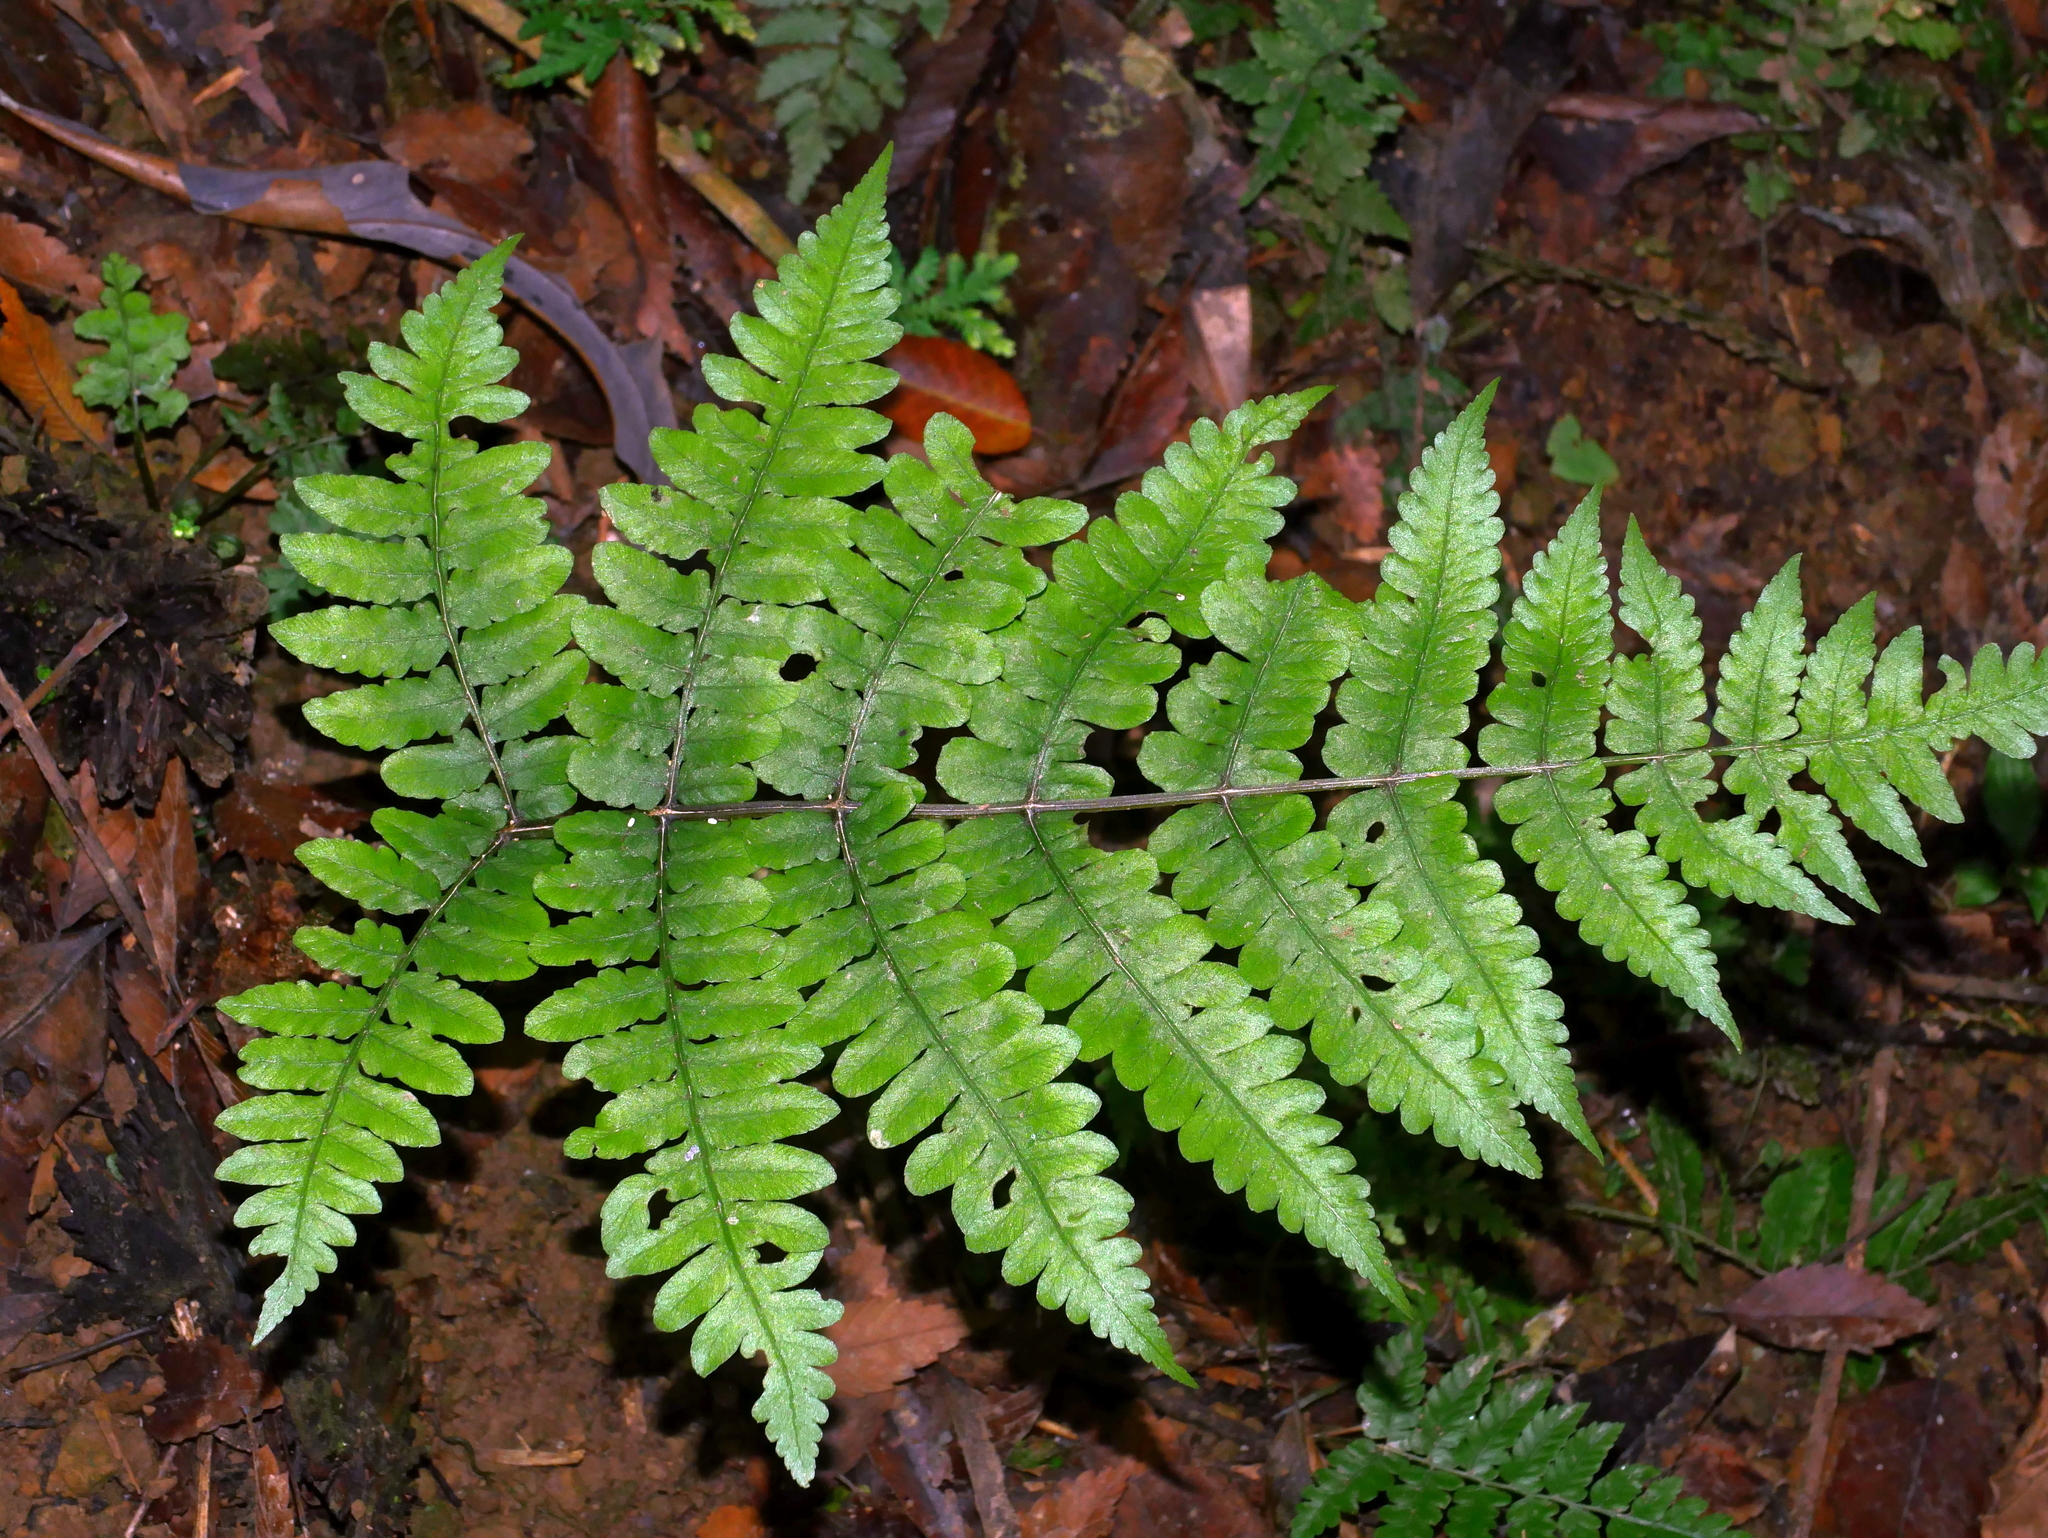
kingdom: Plantae
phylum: Tracheophyta
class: Polypodiopsida
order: Polypodiales
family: Athyriaceae
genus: Cornopteris
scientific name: Cornopteris opaca
